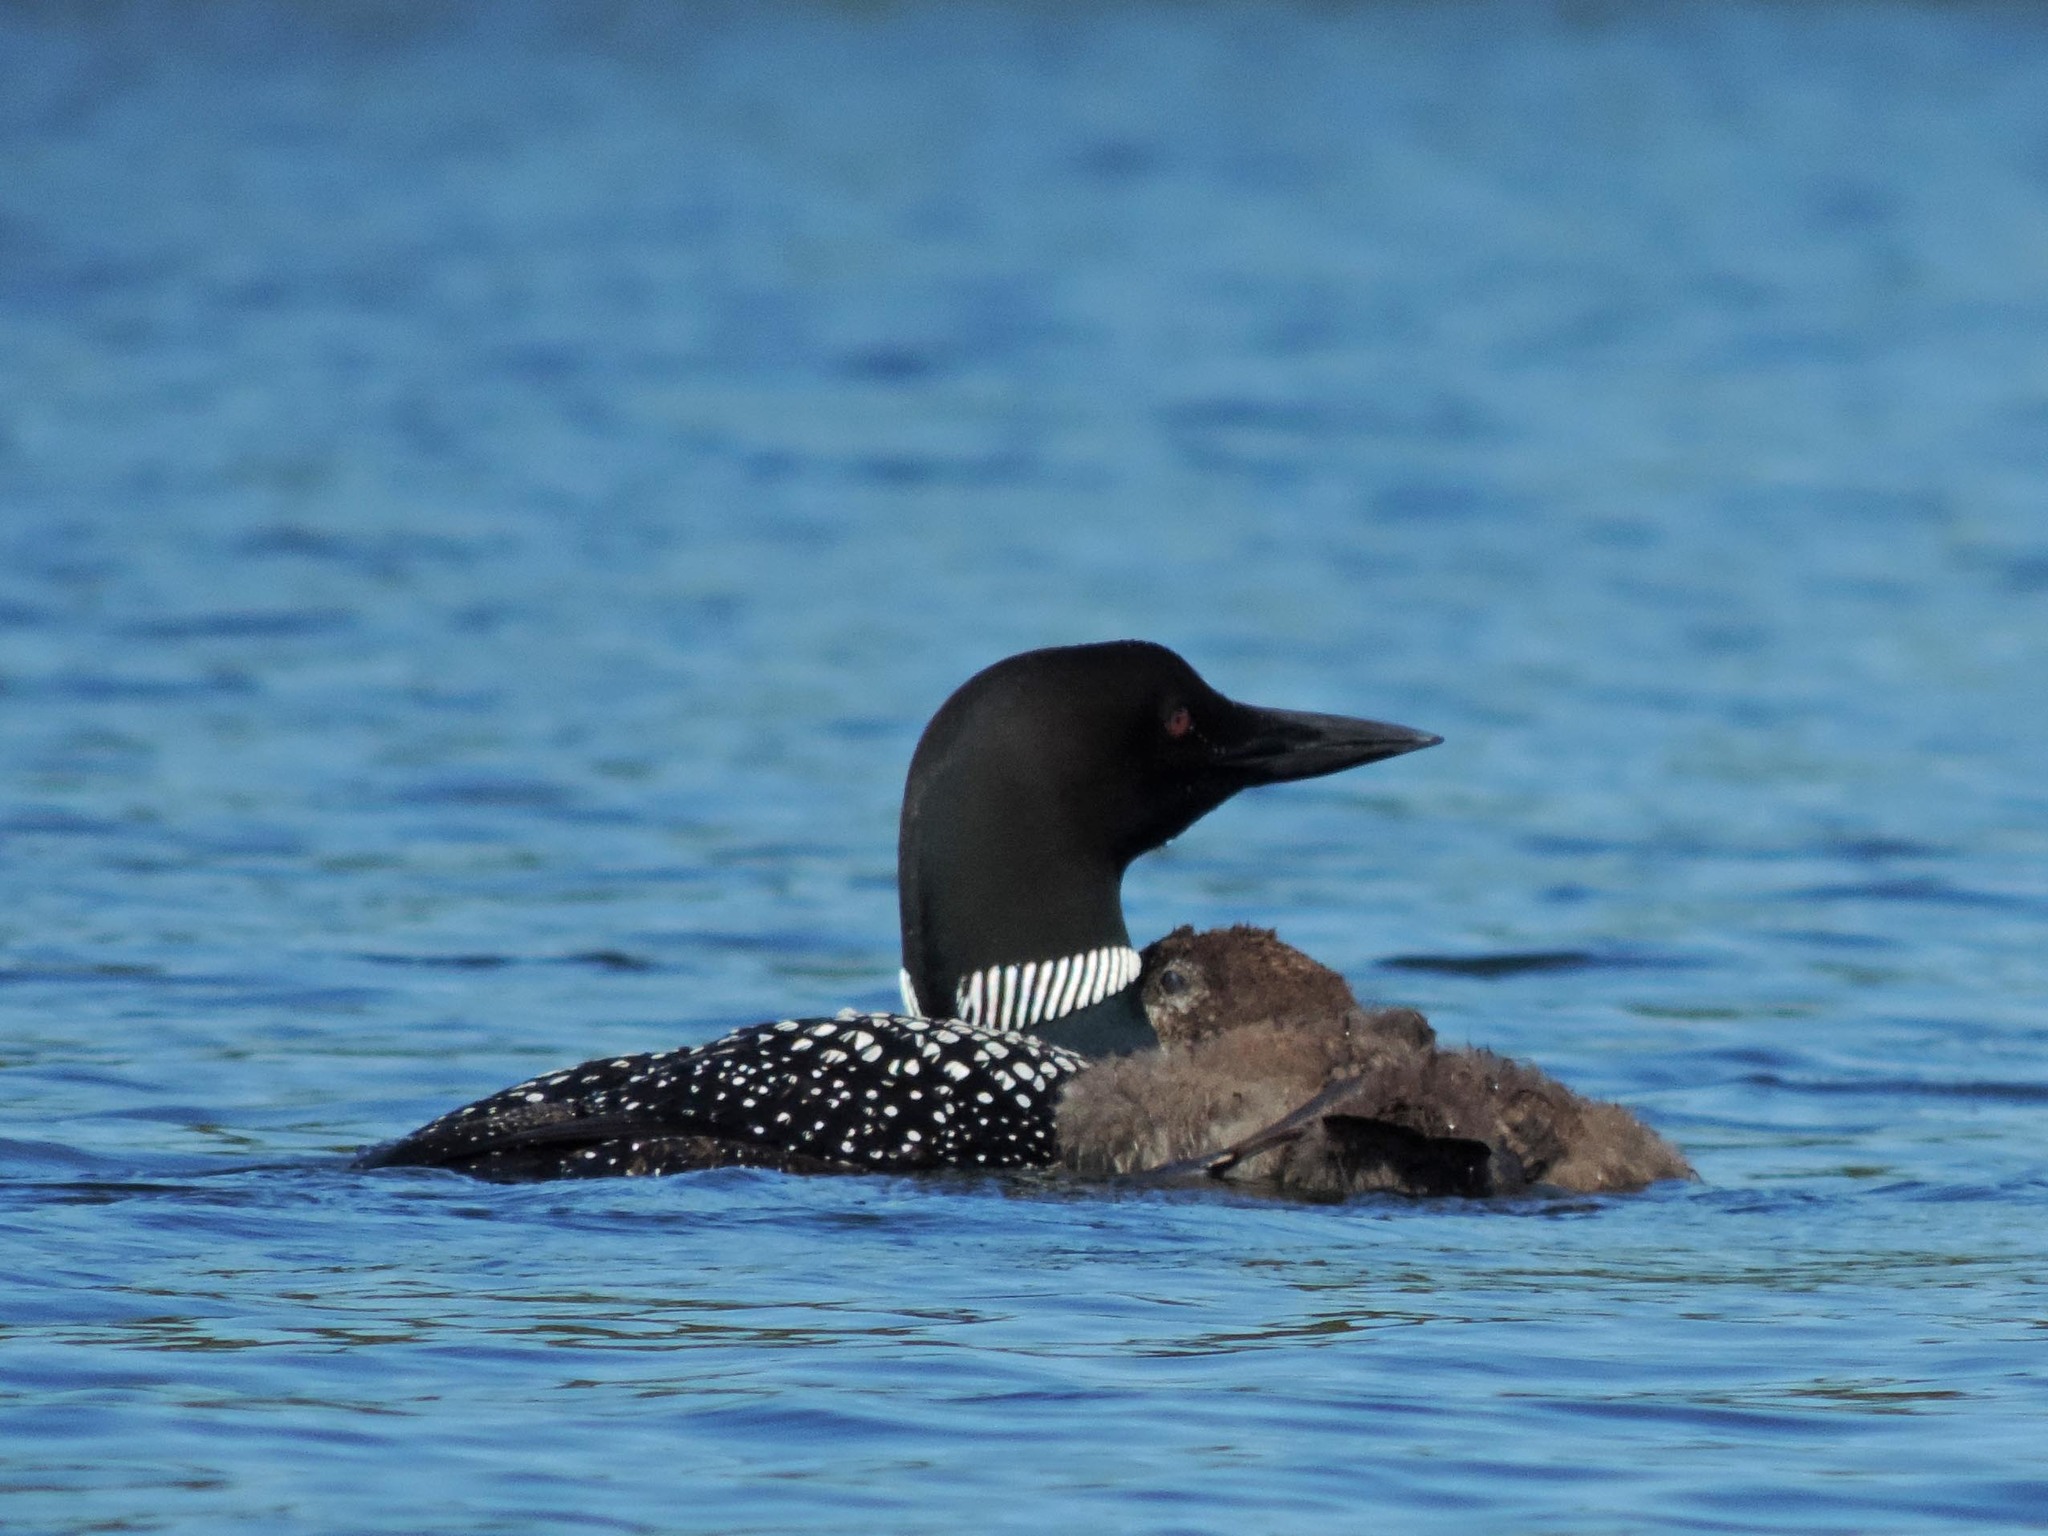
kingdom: Animalia
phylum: Chordata
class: Aves
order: Gaviiformes
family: Gaviidae
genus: Gavia
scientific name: Gavia immer
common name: Common loon
